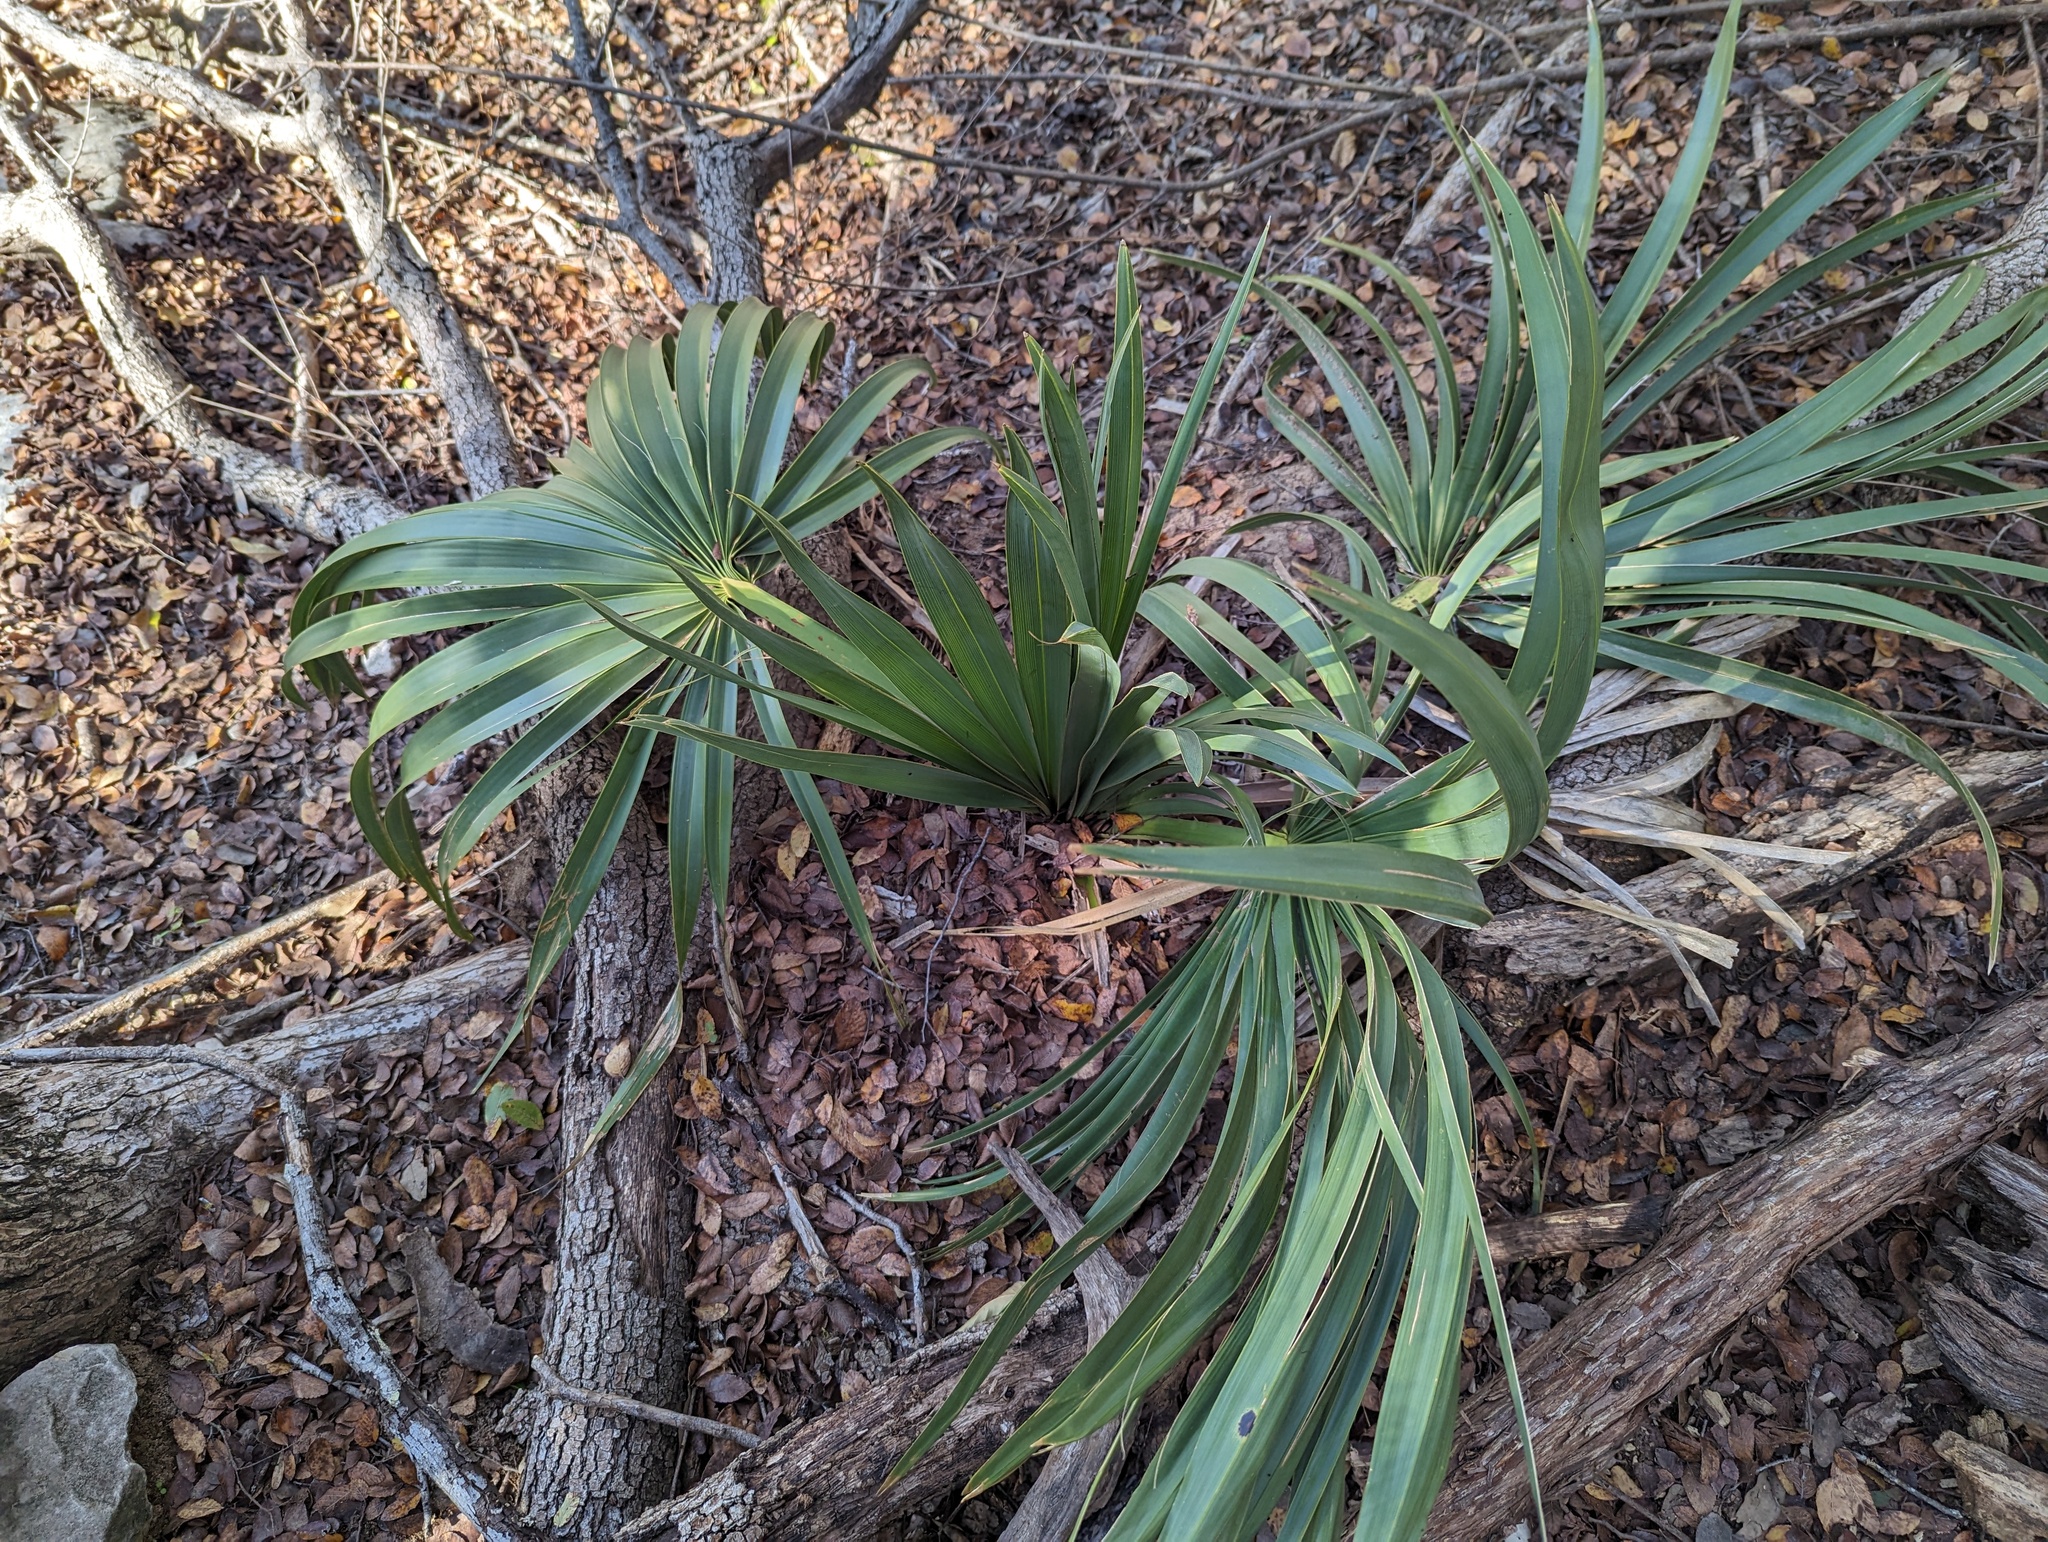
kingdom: Plantae
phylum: Tracheophyta
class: Liliopsida
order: Arecales
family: Arecaceae
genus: Sabal
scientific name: Sabal minor
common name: Dwarf palmetto
